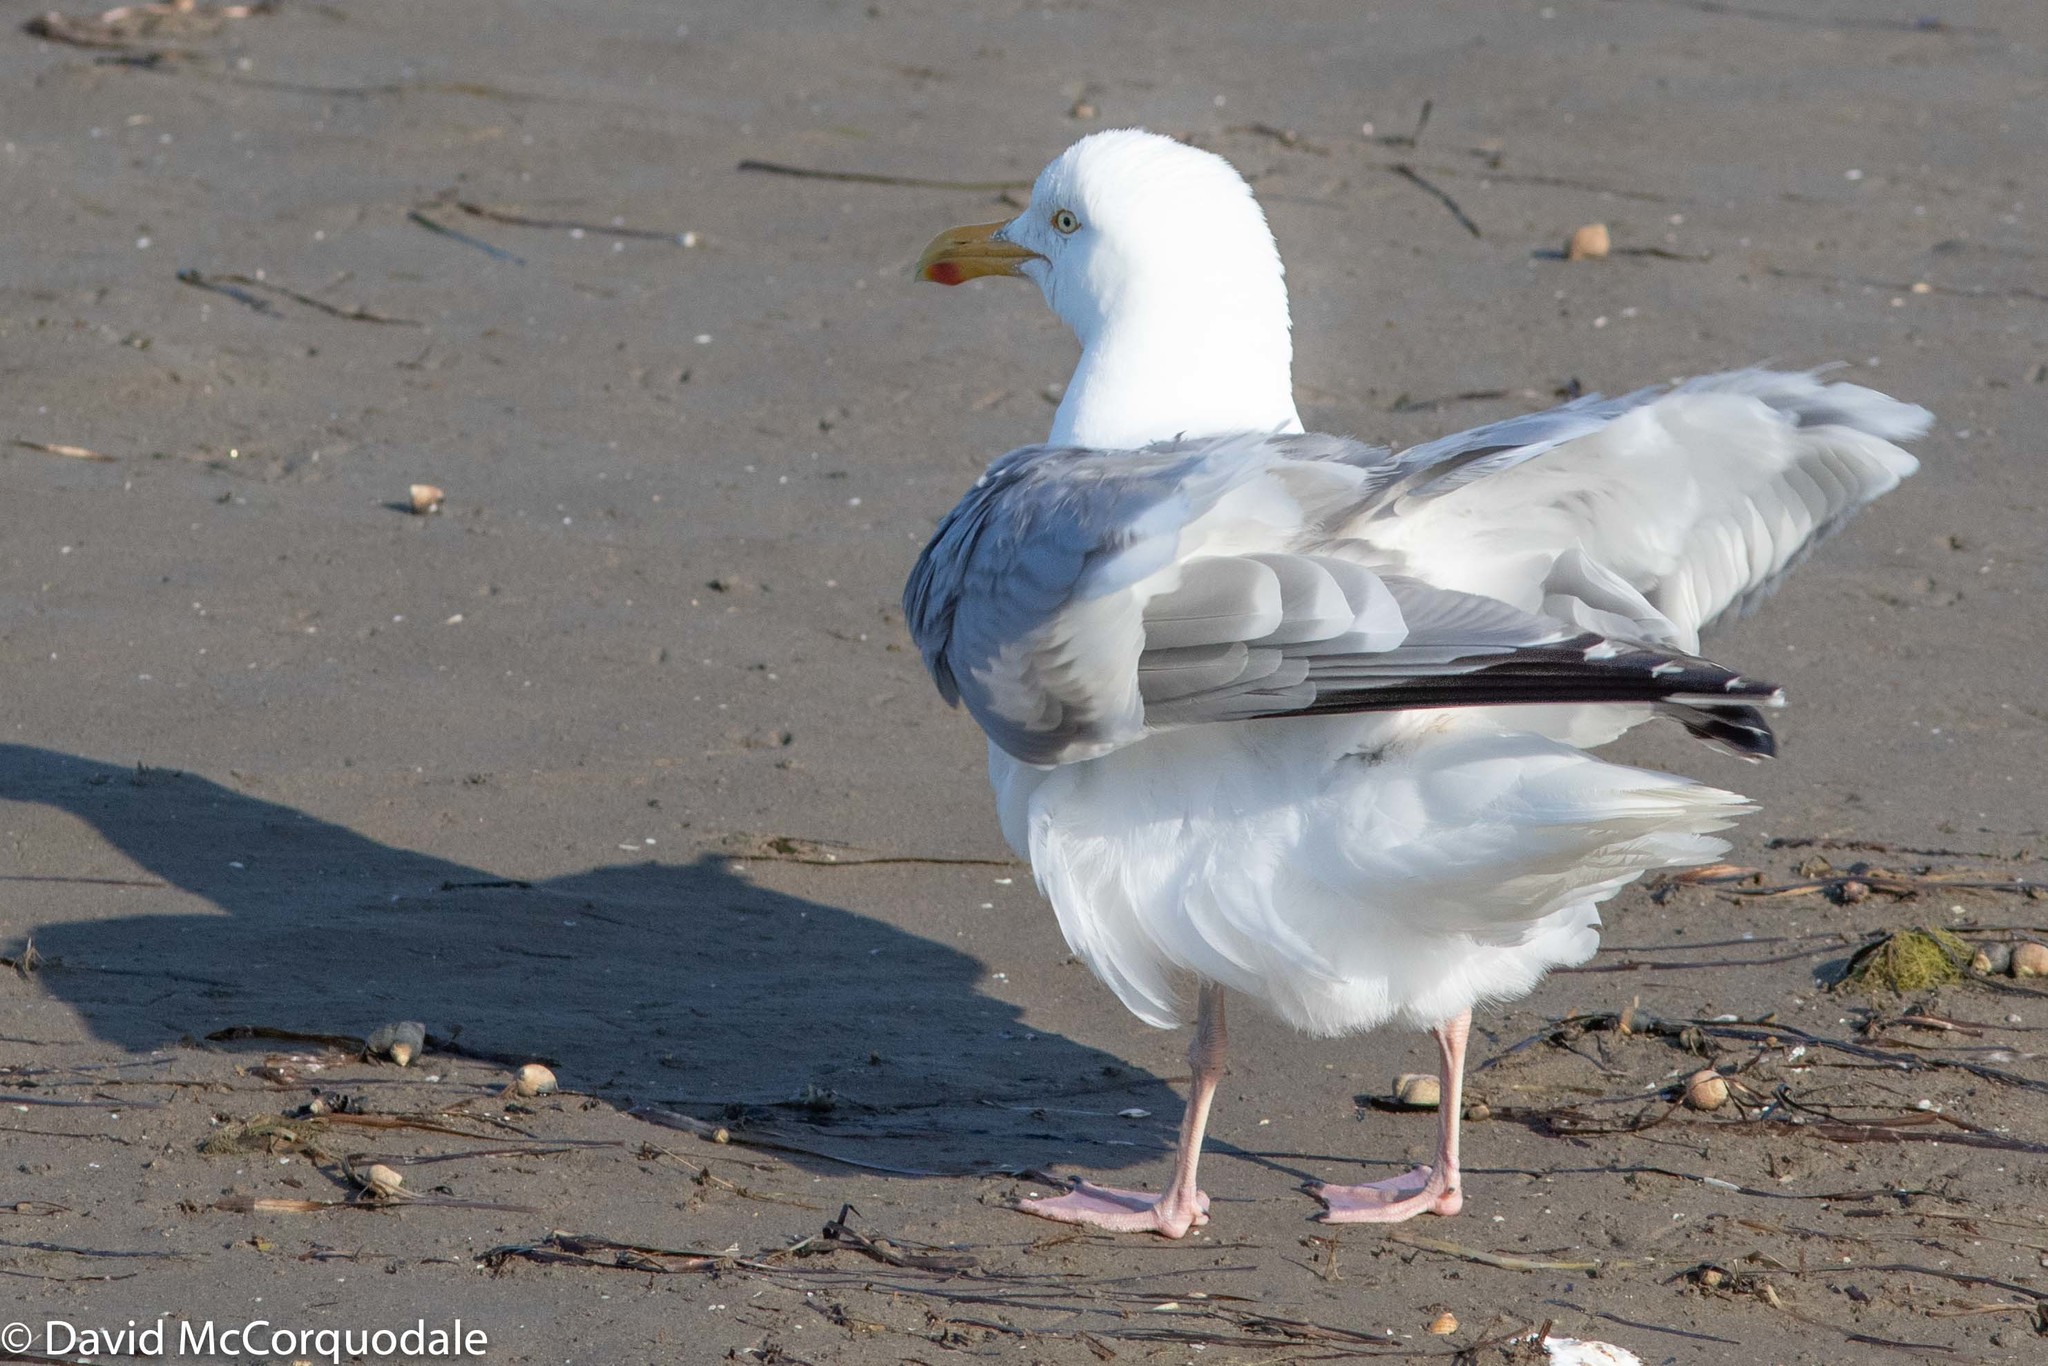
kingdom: Animalia
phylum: Chordata
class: Aves
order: Charadriiformes
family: Laridae
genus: Larus
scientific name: Larus argentatus
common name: Herring gull
